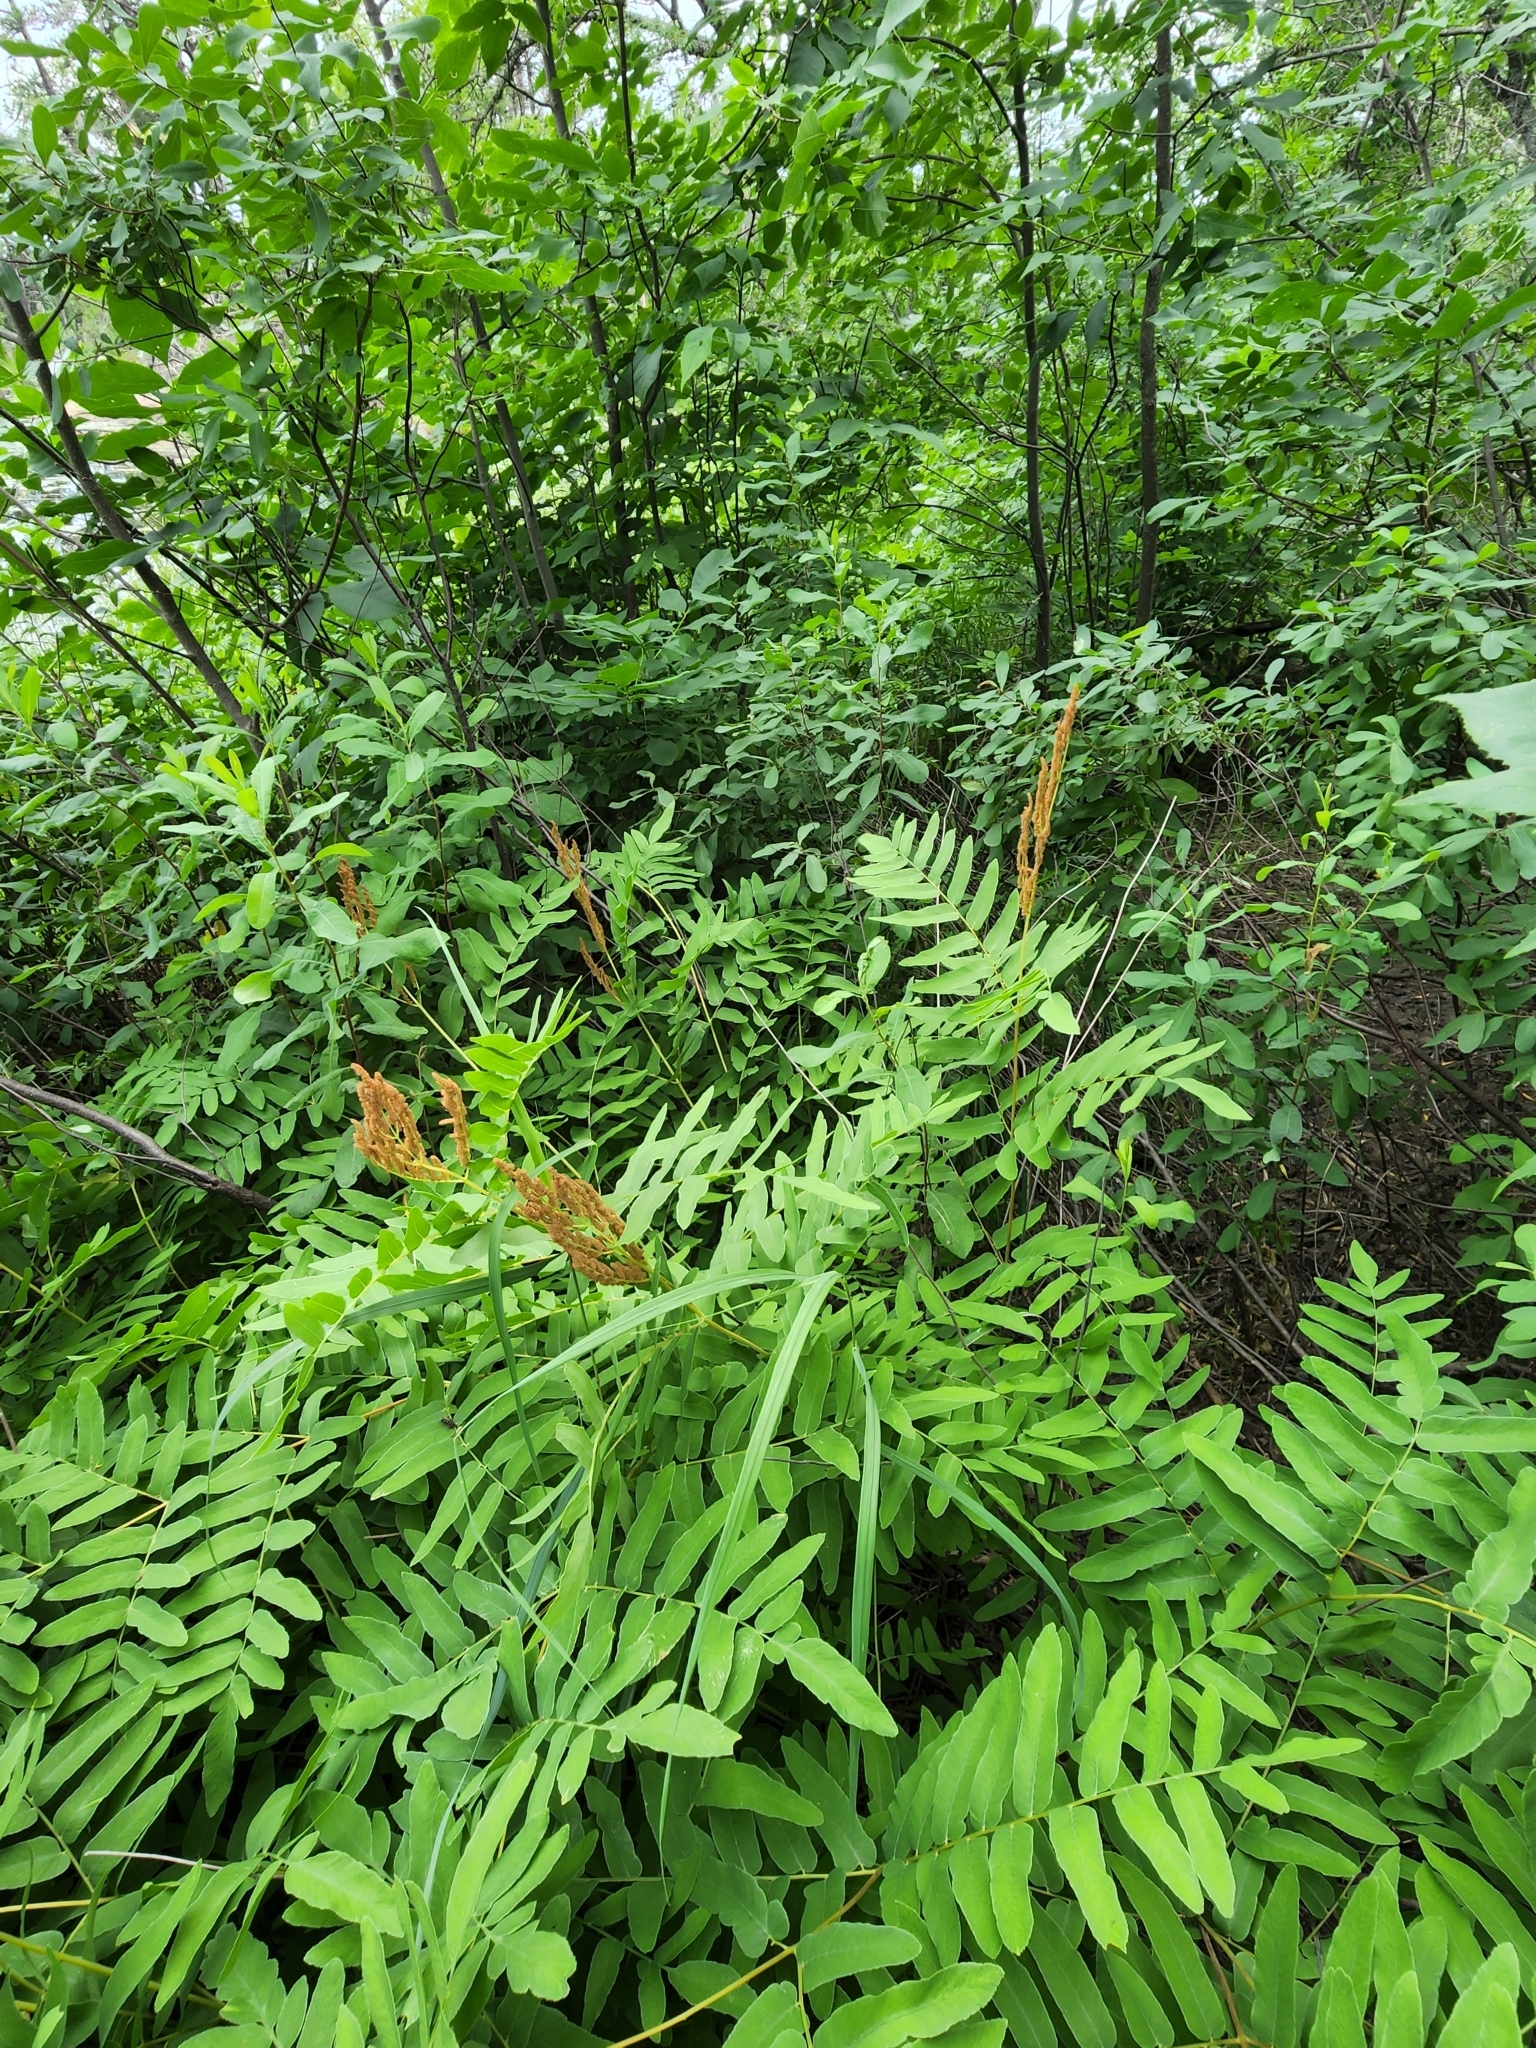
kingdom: Plantae
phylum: Tracheophyta
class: Polypodiopsida
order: Osmundales
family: Osmundaceae
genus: Osmunda
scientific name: Osmunda spectabilis
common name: American royal fern
